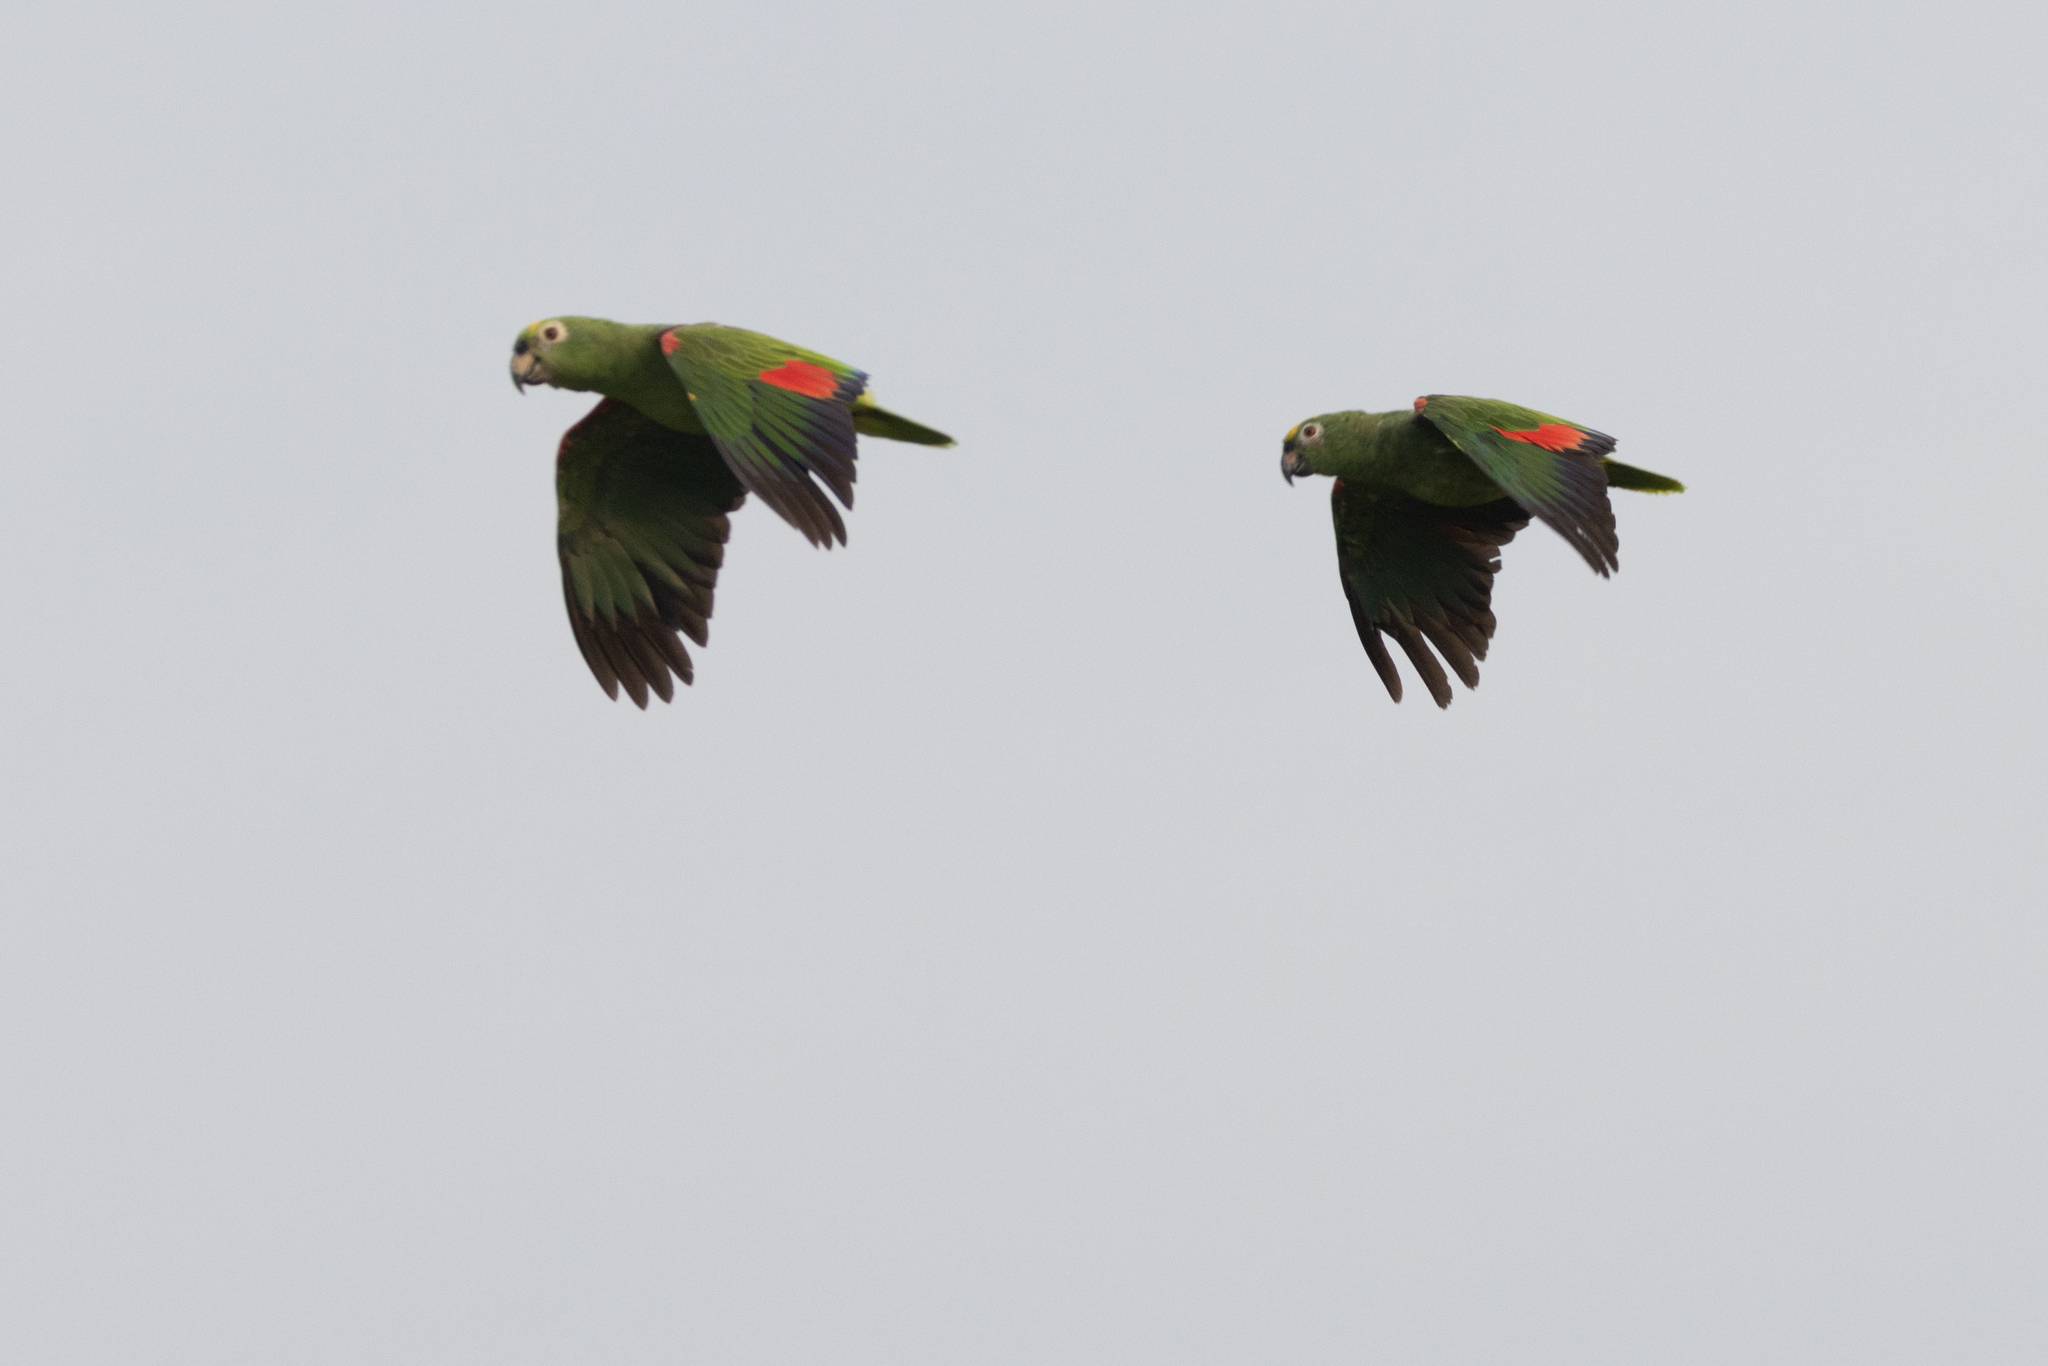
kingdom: Animalia
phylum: Chordata
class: Aves
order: Psittaciformes
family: Psittacidae
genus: Amazona
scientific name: Amazona ochrocephala
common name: Yellow-crowned amazon
